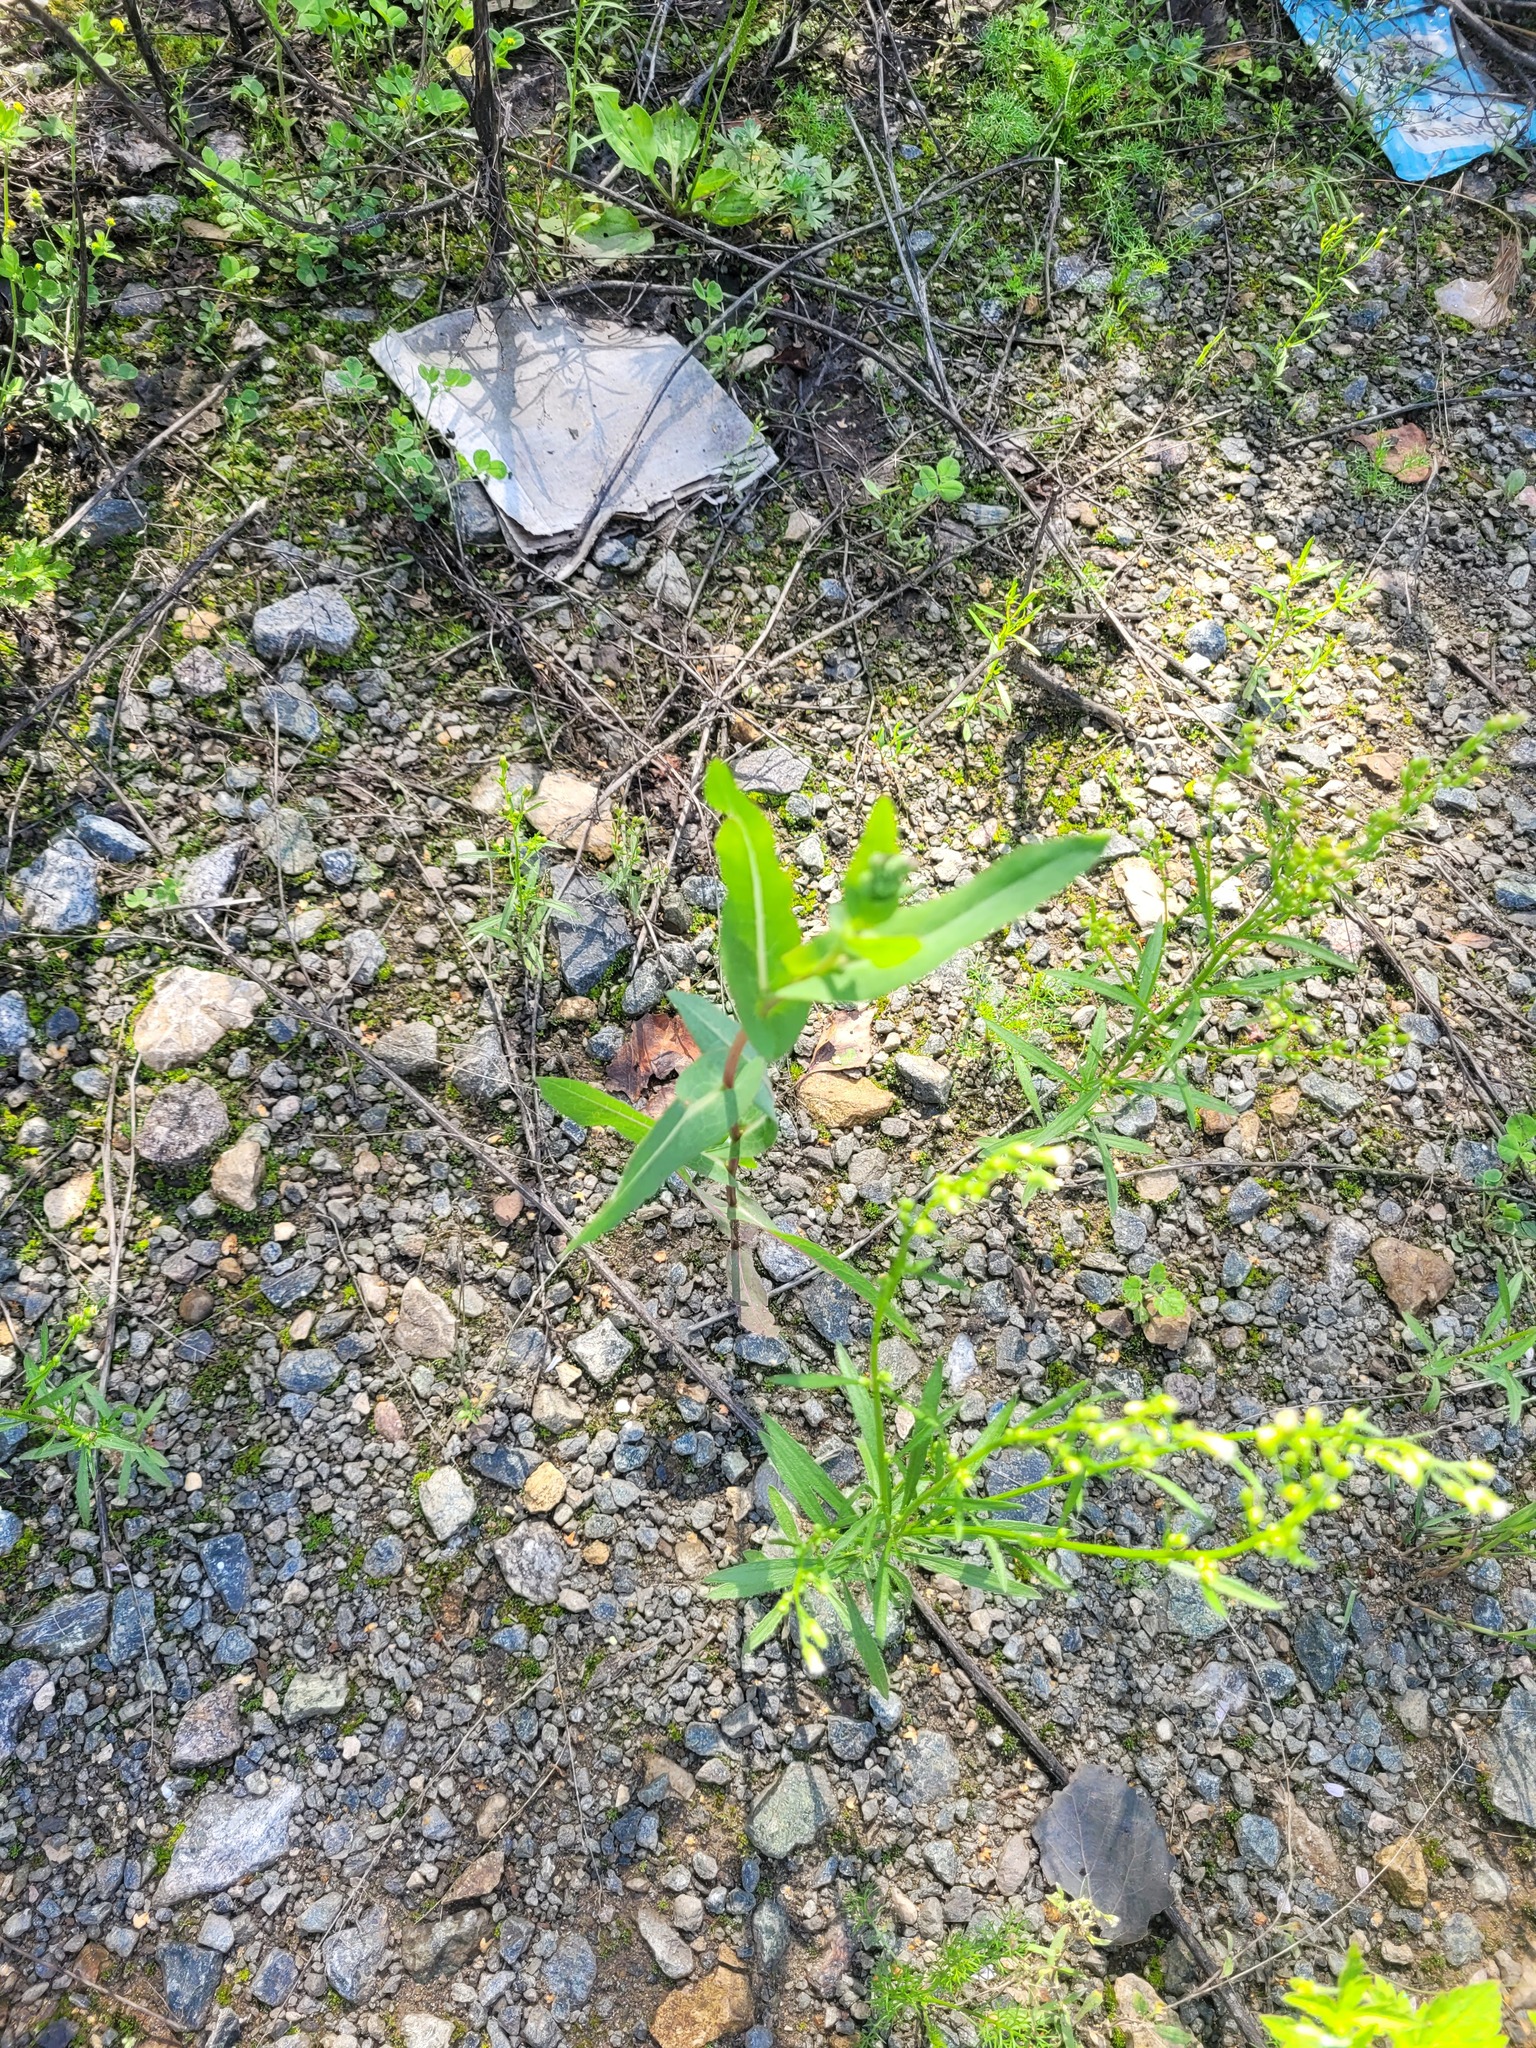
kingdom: Plantae
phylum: Tracheophyta
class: Magnoliopsida
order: Asterales
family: Asteraceae
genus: Lactuca
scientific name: Lactuca serriola
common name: Prickly lettuce
